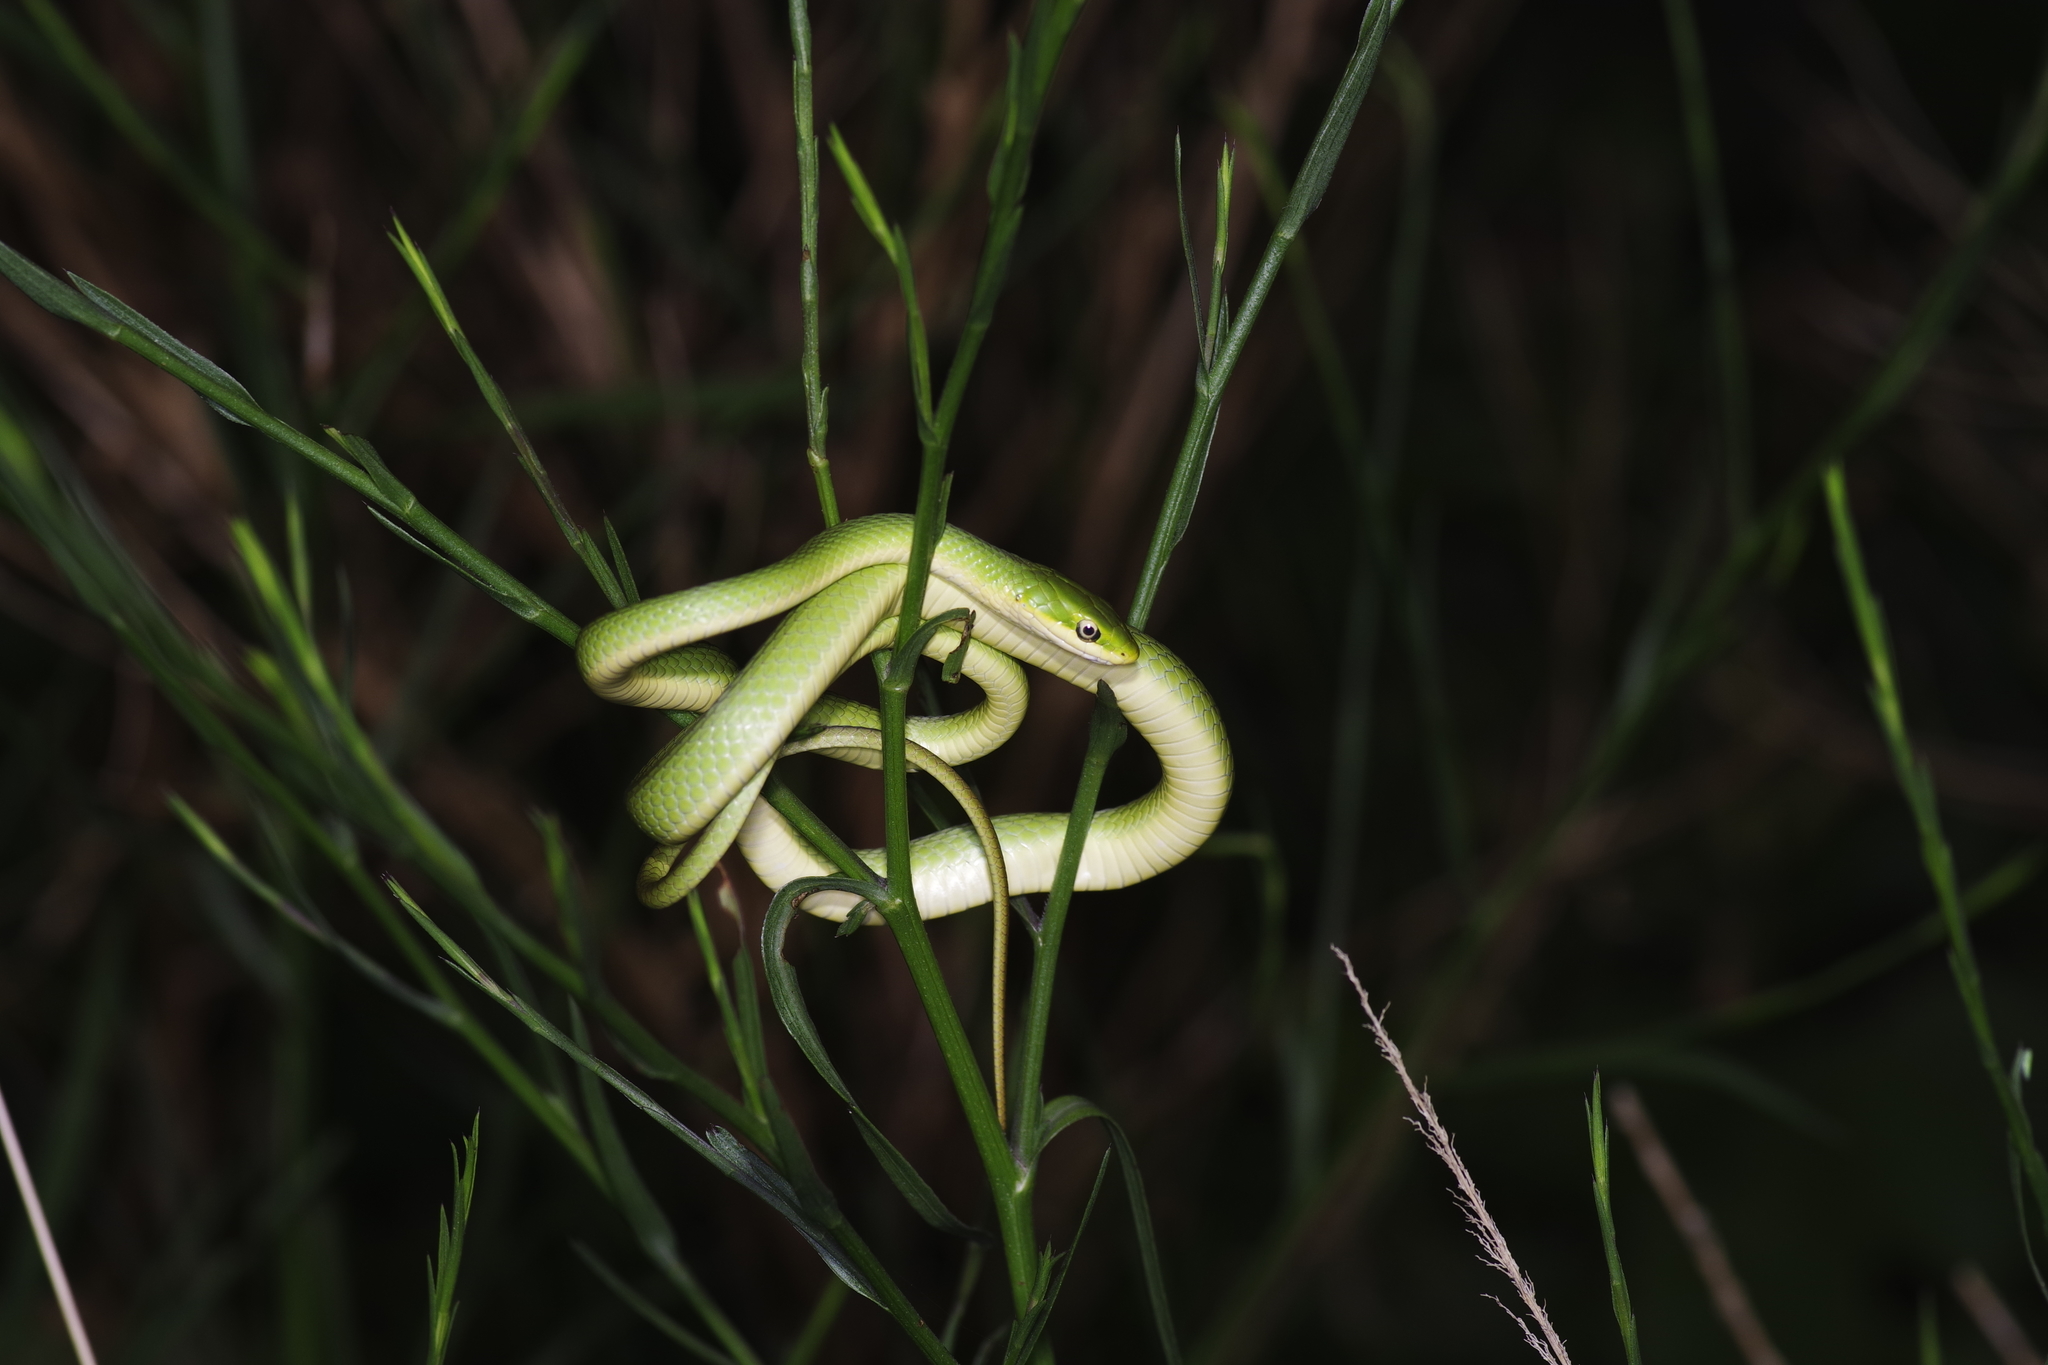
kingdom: Animalia
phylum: Chordata
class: Squamata
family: Colubridae
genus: Opheodrys
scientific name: Opheodrys aestivus
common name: Rough greensnake
